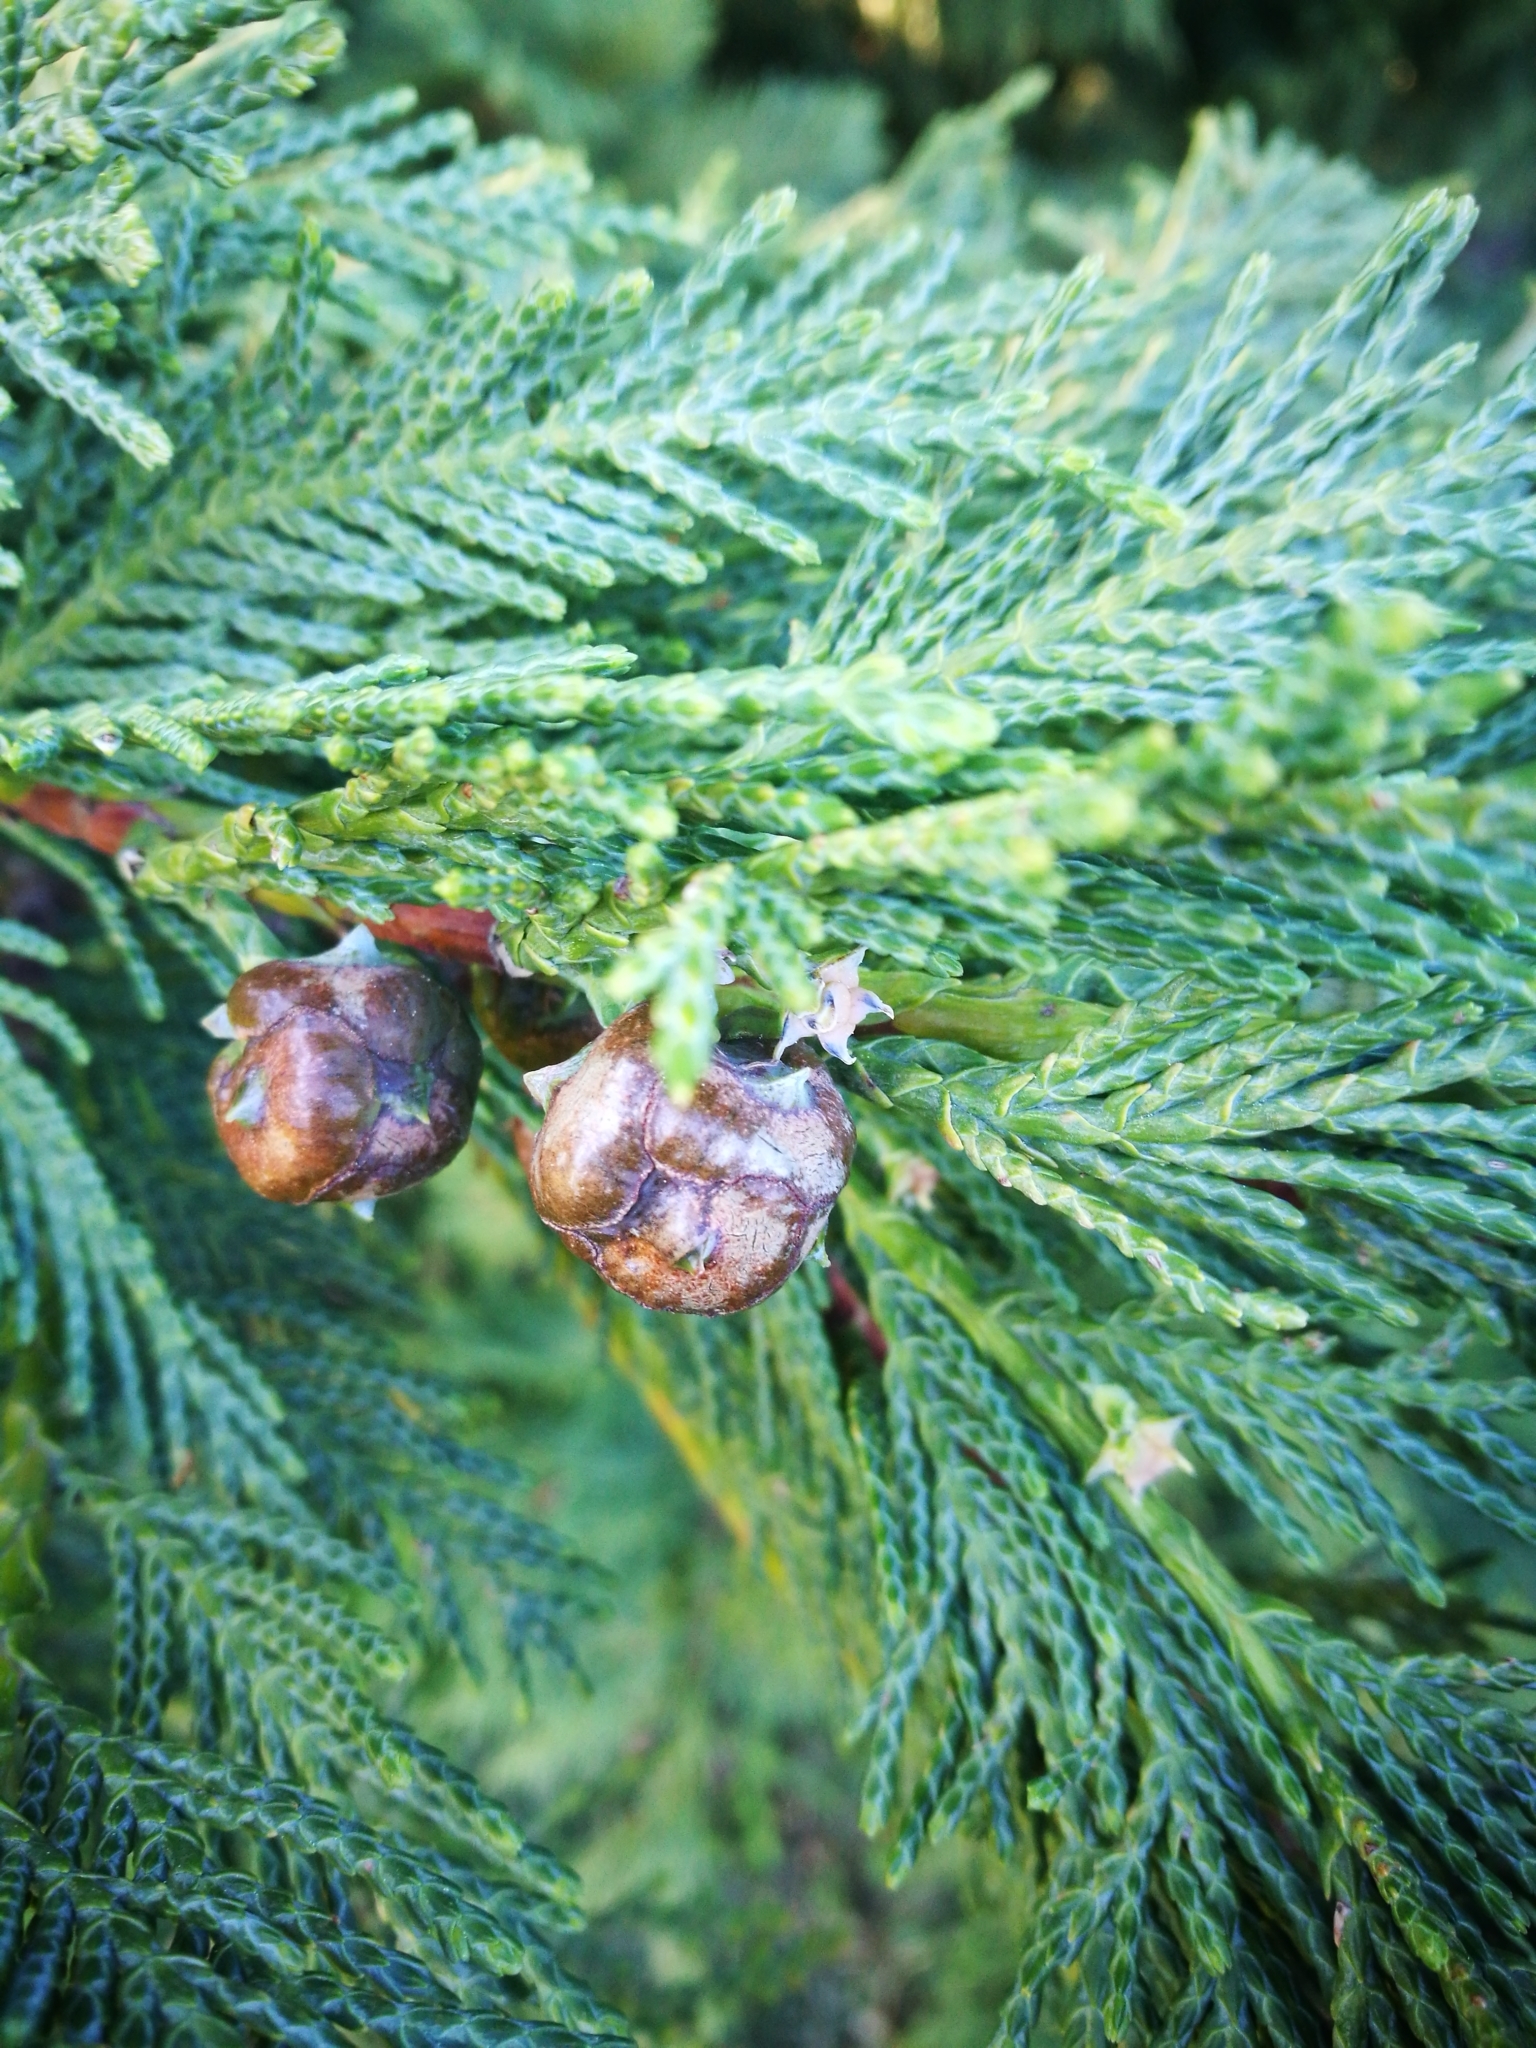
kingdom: Plantae
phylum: Tracheophyta
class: Pinopsida
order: Pinales
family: Cupressaceae
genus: Chamaecyparis
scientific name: Chamaecyparis lawsoniana
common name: Lawson's cypress
